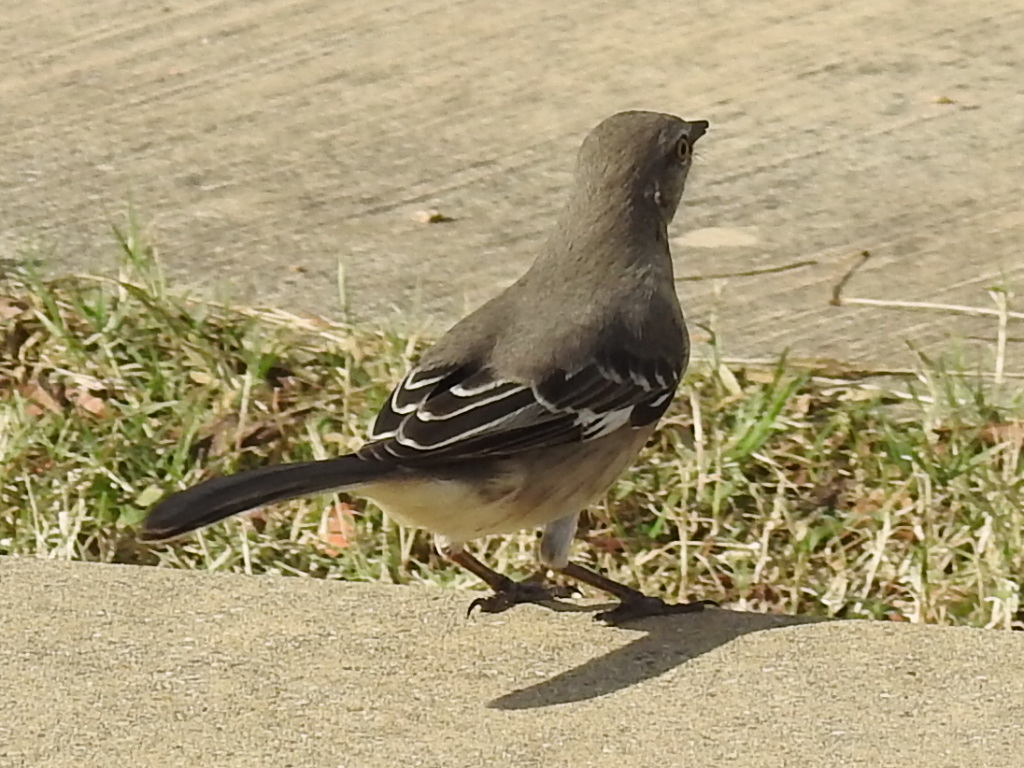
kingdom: Animalia
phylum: Chordata
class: Aves
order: Passeriformes
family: Mimidae
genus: Mimus
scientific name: Mimus polyglottos
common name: Northern mockingbird
